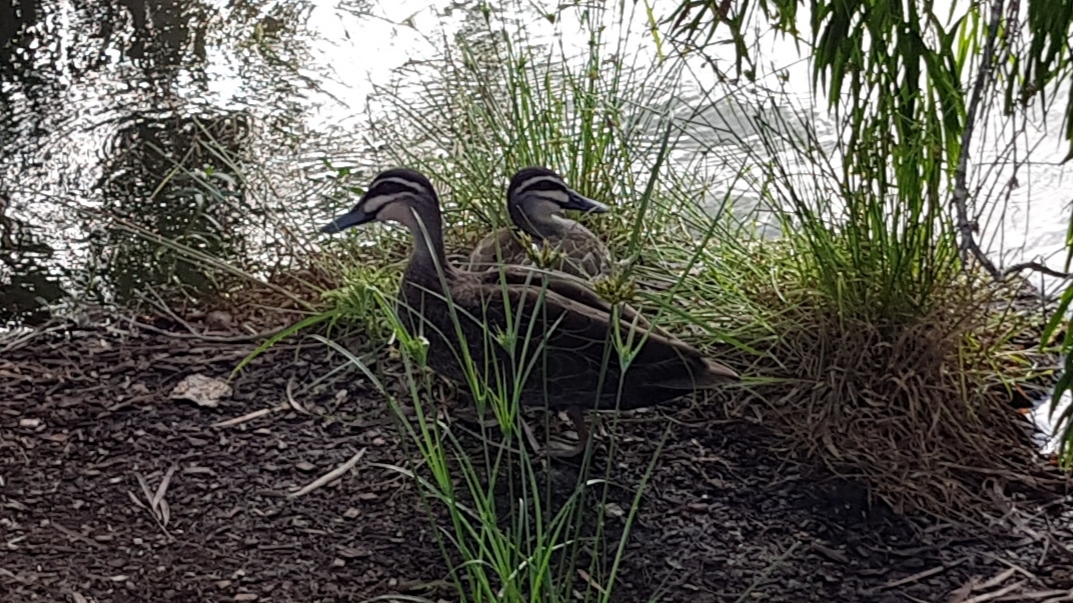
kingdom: Animalia
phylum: Chordata
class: Aves
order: Anseriformes
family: Anatidae
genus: Anas
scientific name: Anas superciliosa
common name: Pacific black duck
